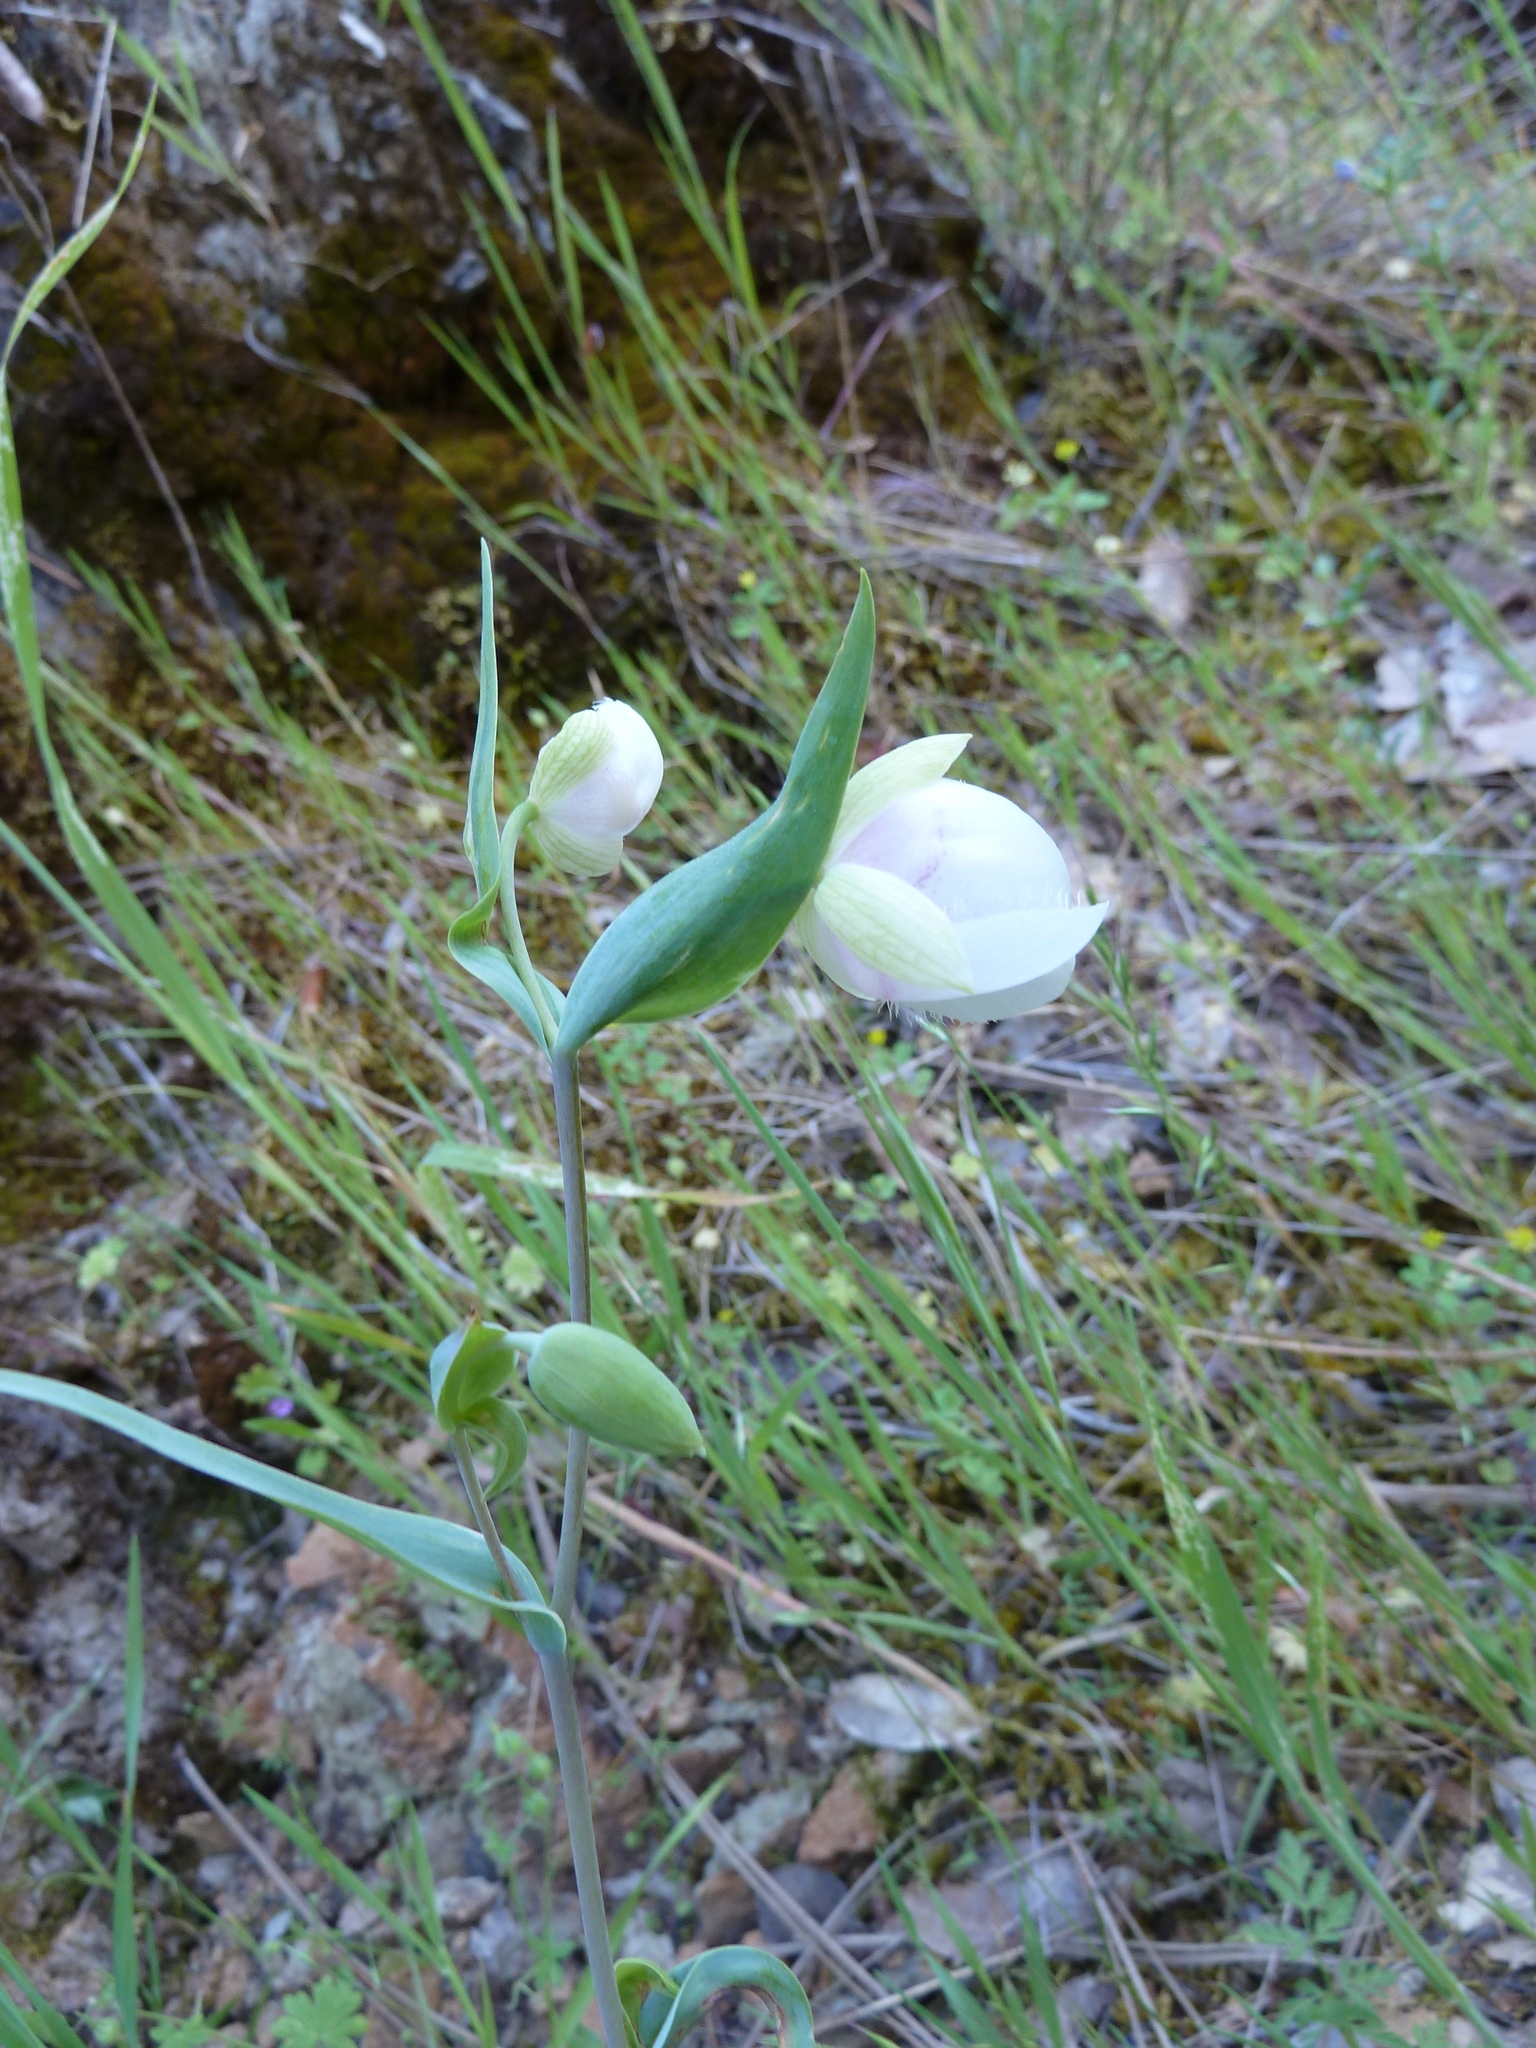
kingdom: Plantae
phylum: Tracheophyta
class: Liliopsida
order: Liliales
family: Liliaceae
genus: Calochortus
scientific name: Calochortus albus
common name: Fairy-lantern
